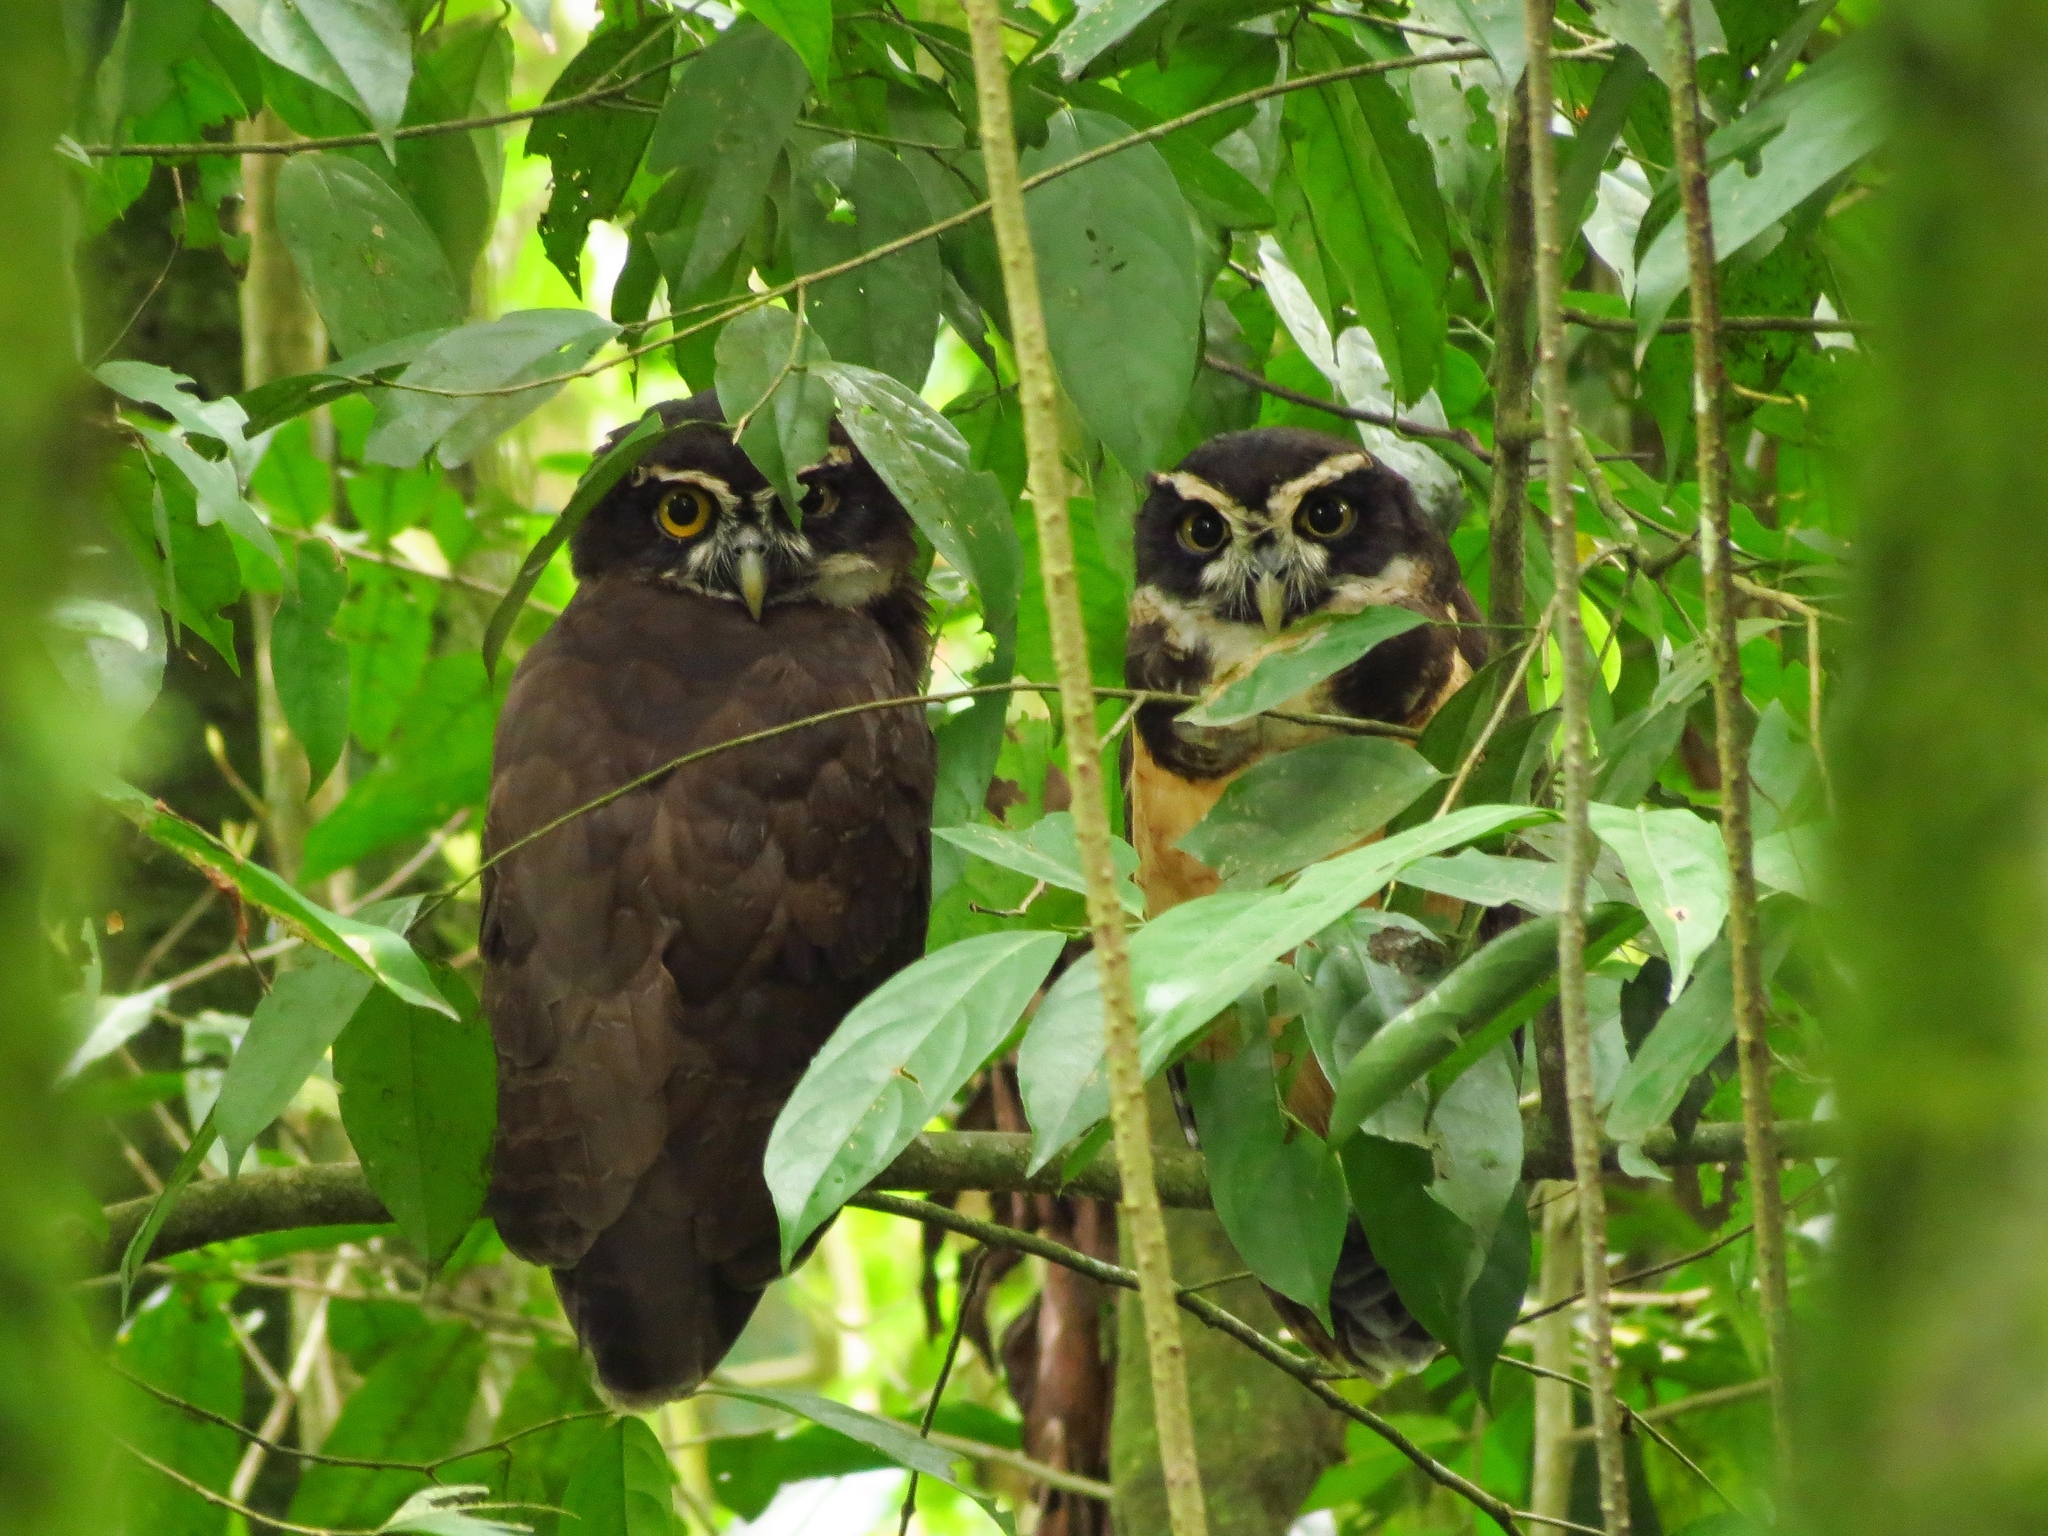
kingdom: Animalia
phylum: Chordata
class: Aves
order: Strigiformes
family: Strigidae
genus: Pulsatrix
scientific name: Pulsatrix perspicillata
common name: Spectacled owl
